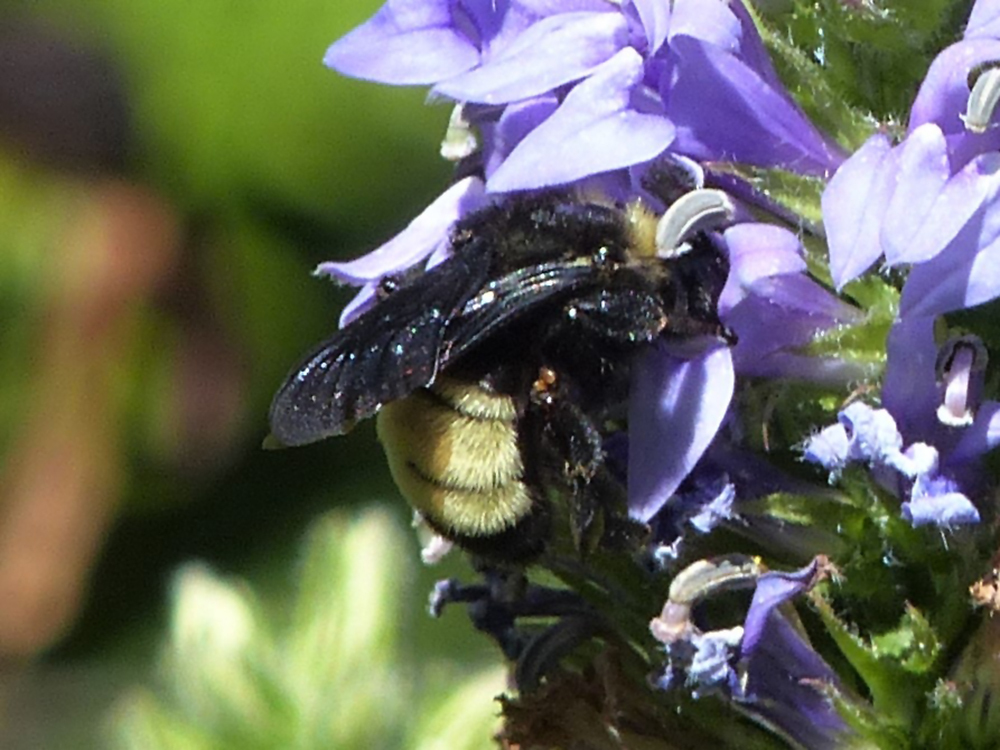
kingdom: Animalia
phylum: Arthropoda
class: Insecta
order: Hymenoptera
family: Apidae
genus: Bombus
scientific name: Bombus pensylvanicus
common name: Bumble bee
